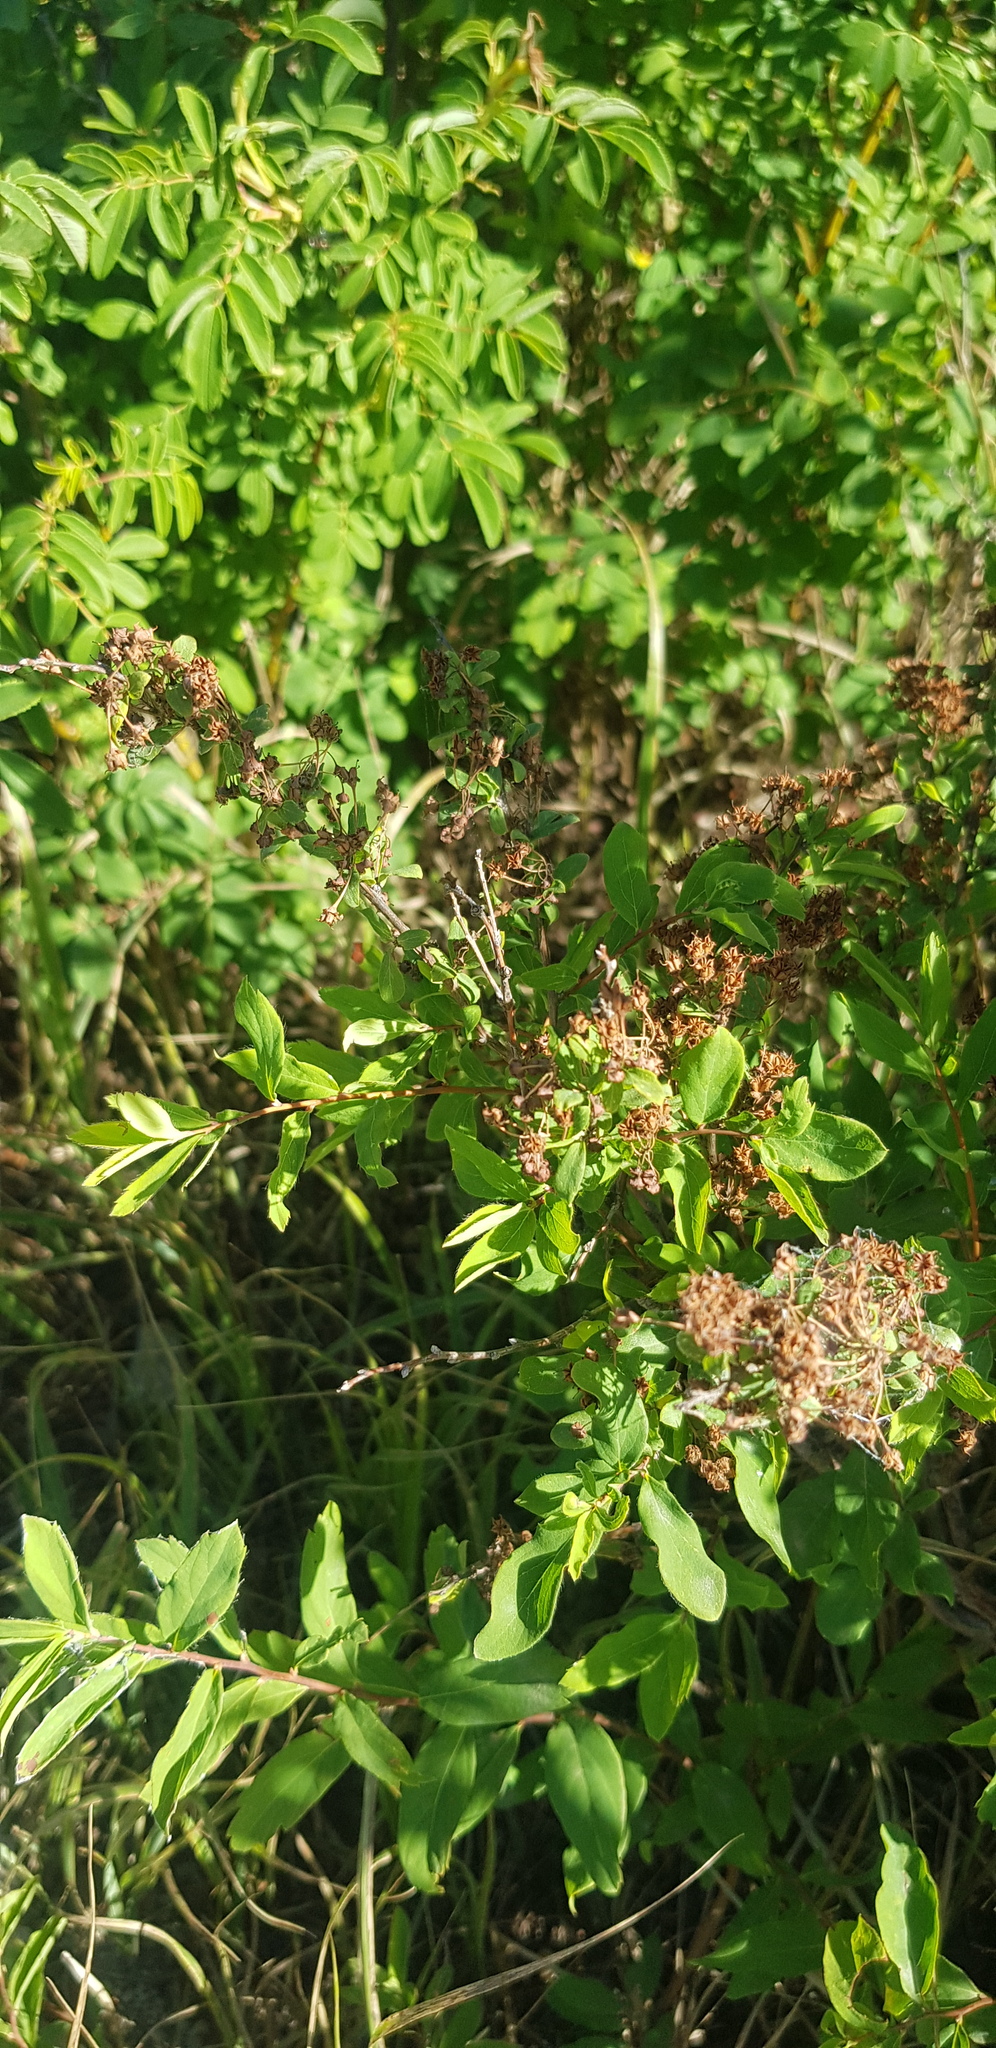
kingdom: Plantae
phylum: Tracheophyta
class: Magnoliopsida
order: Rosales
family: Rosaceae
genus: Spiraea
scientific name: Spiraea salicifolia
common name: Bridewort
